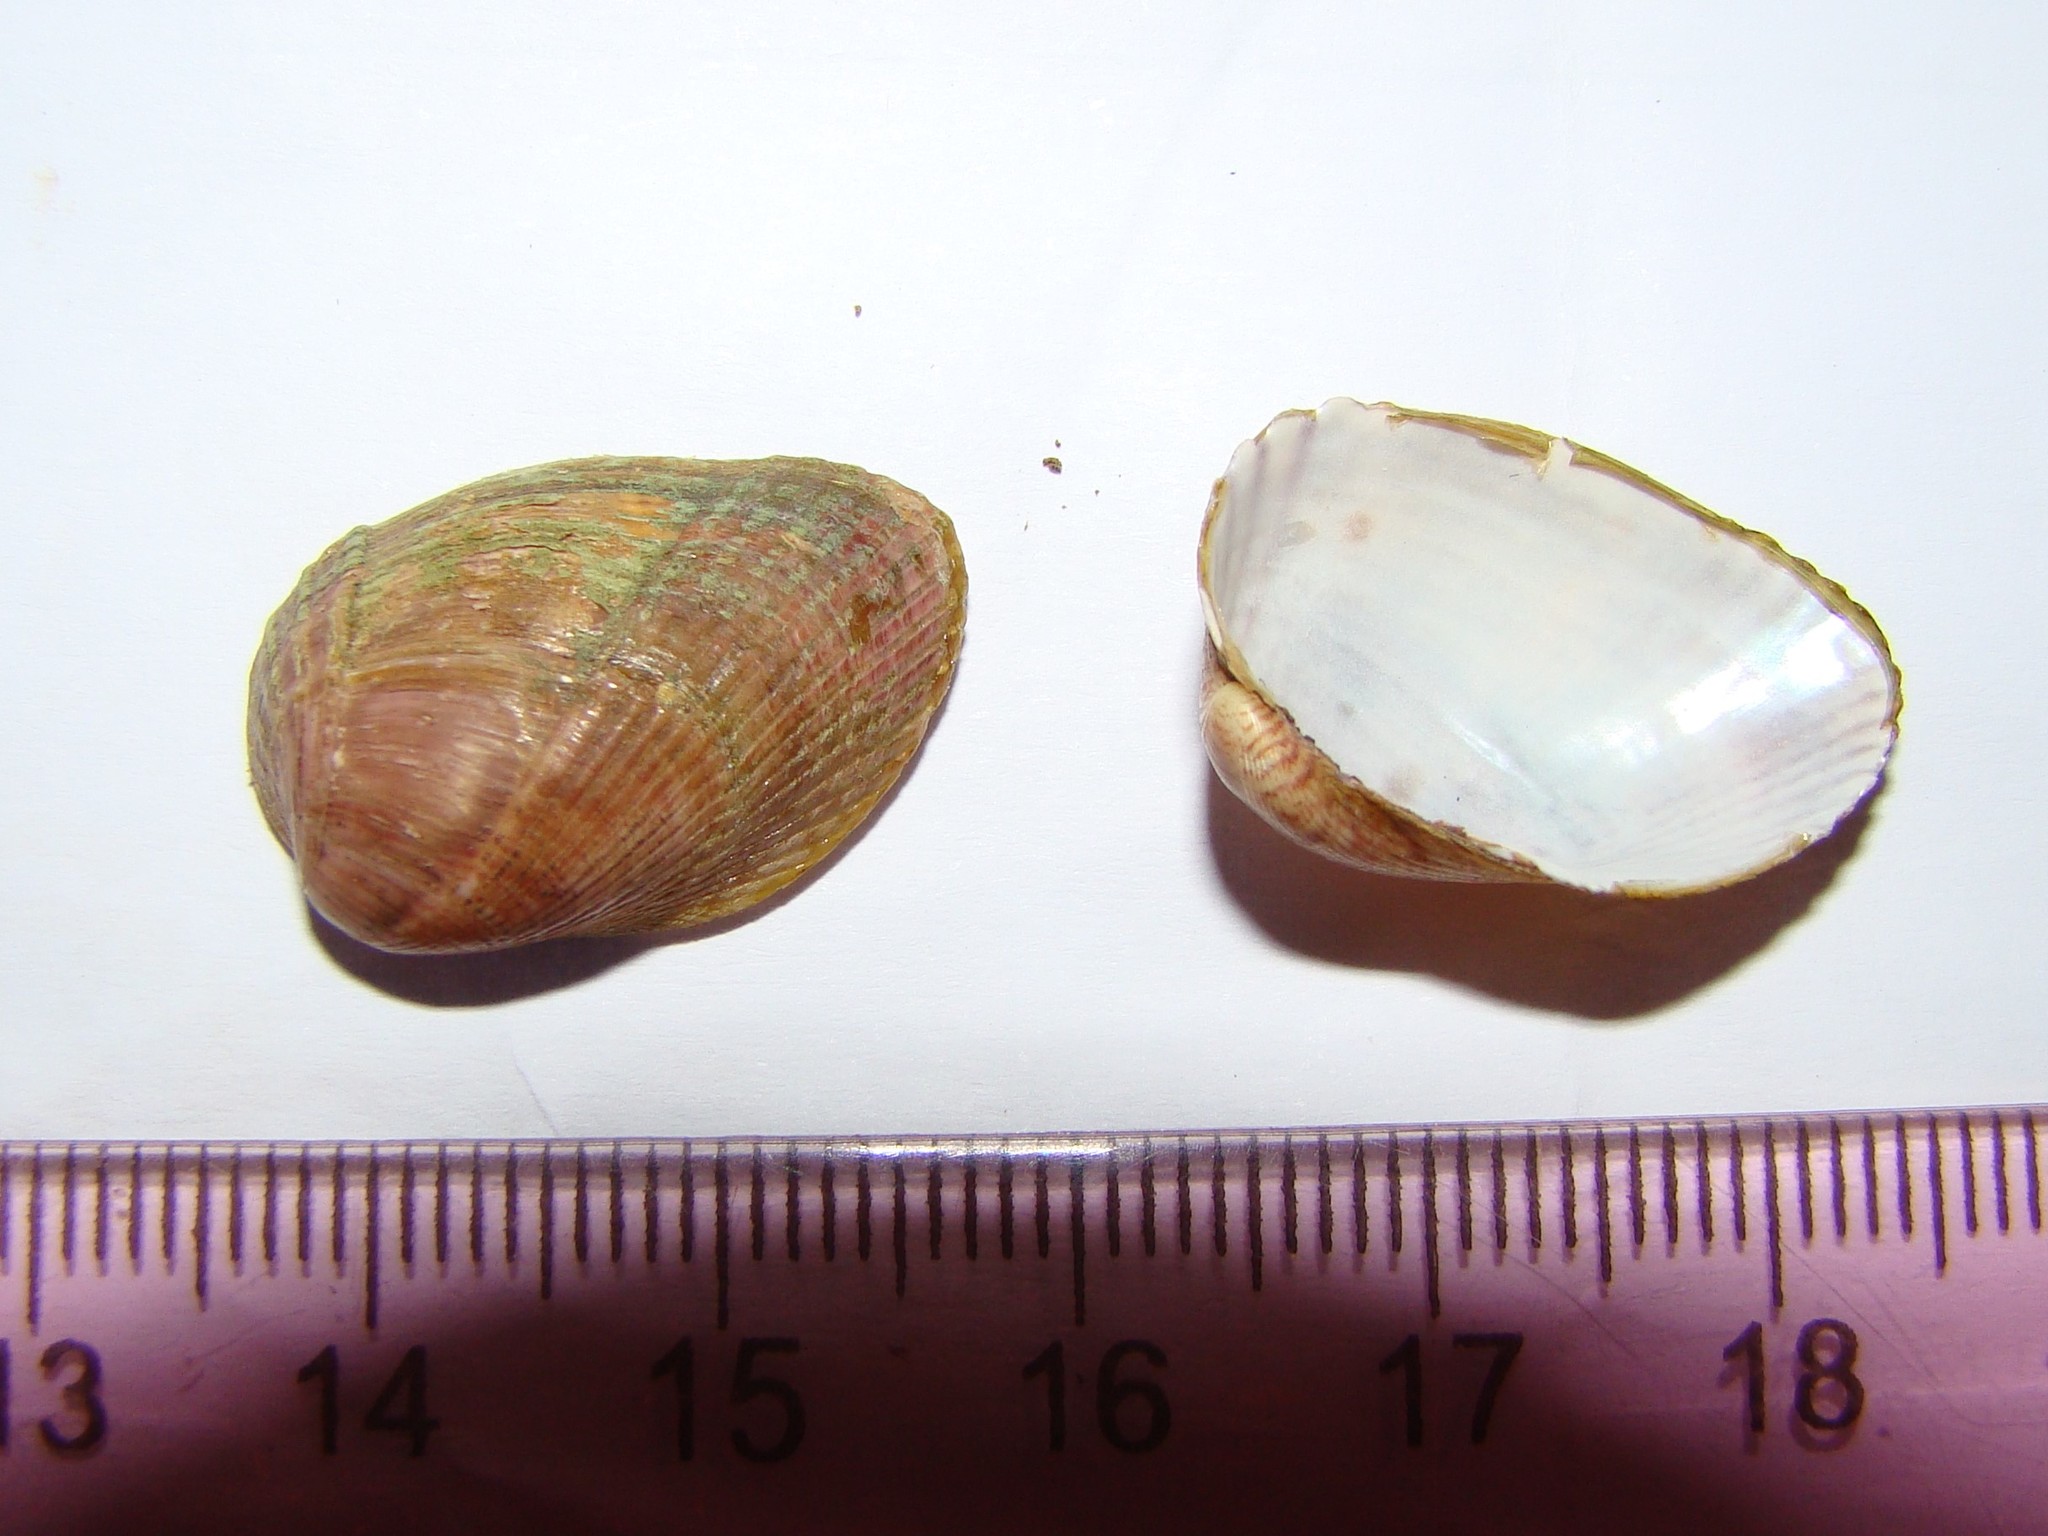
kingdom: Animalia
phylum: Mollusca
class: Bivalvia
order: Mytilida
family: Mytilidae
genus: Musculus
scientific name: Musculus impactus
